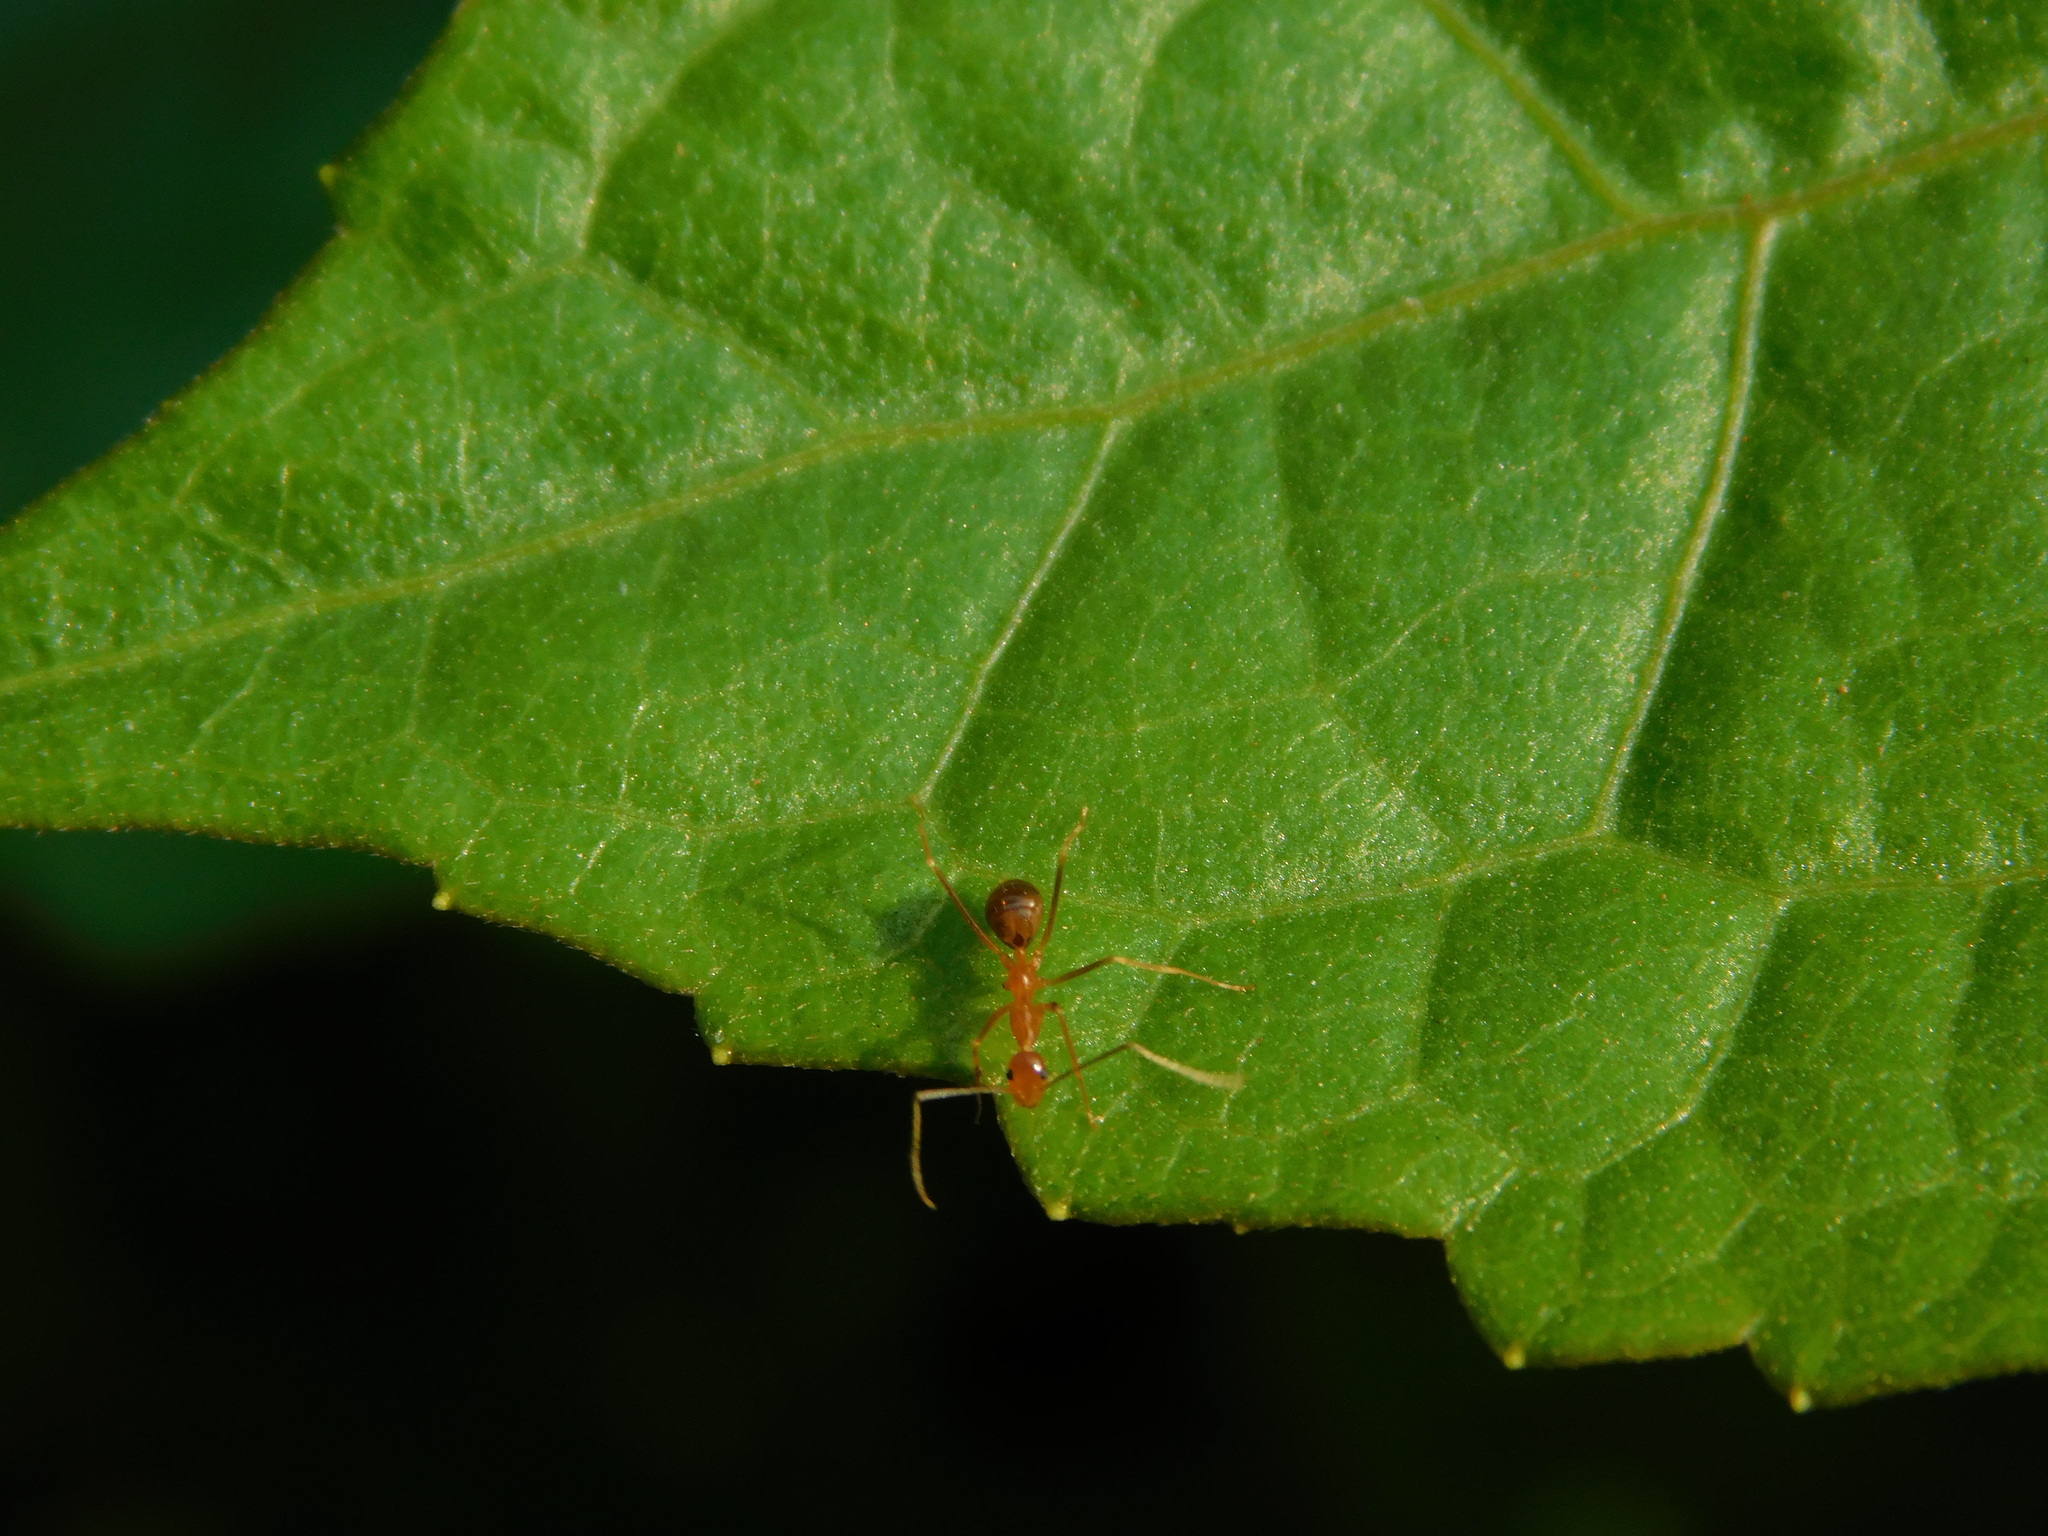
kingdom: Animalia
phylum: Arthropoda
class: Insecta
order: Hymenoptera
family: Formicidae
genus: Anoplolepis
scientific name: Anoplolepis gracilipes
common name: Ant
